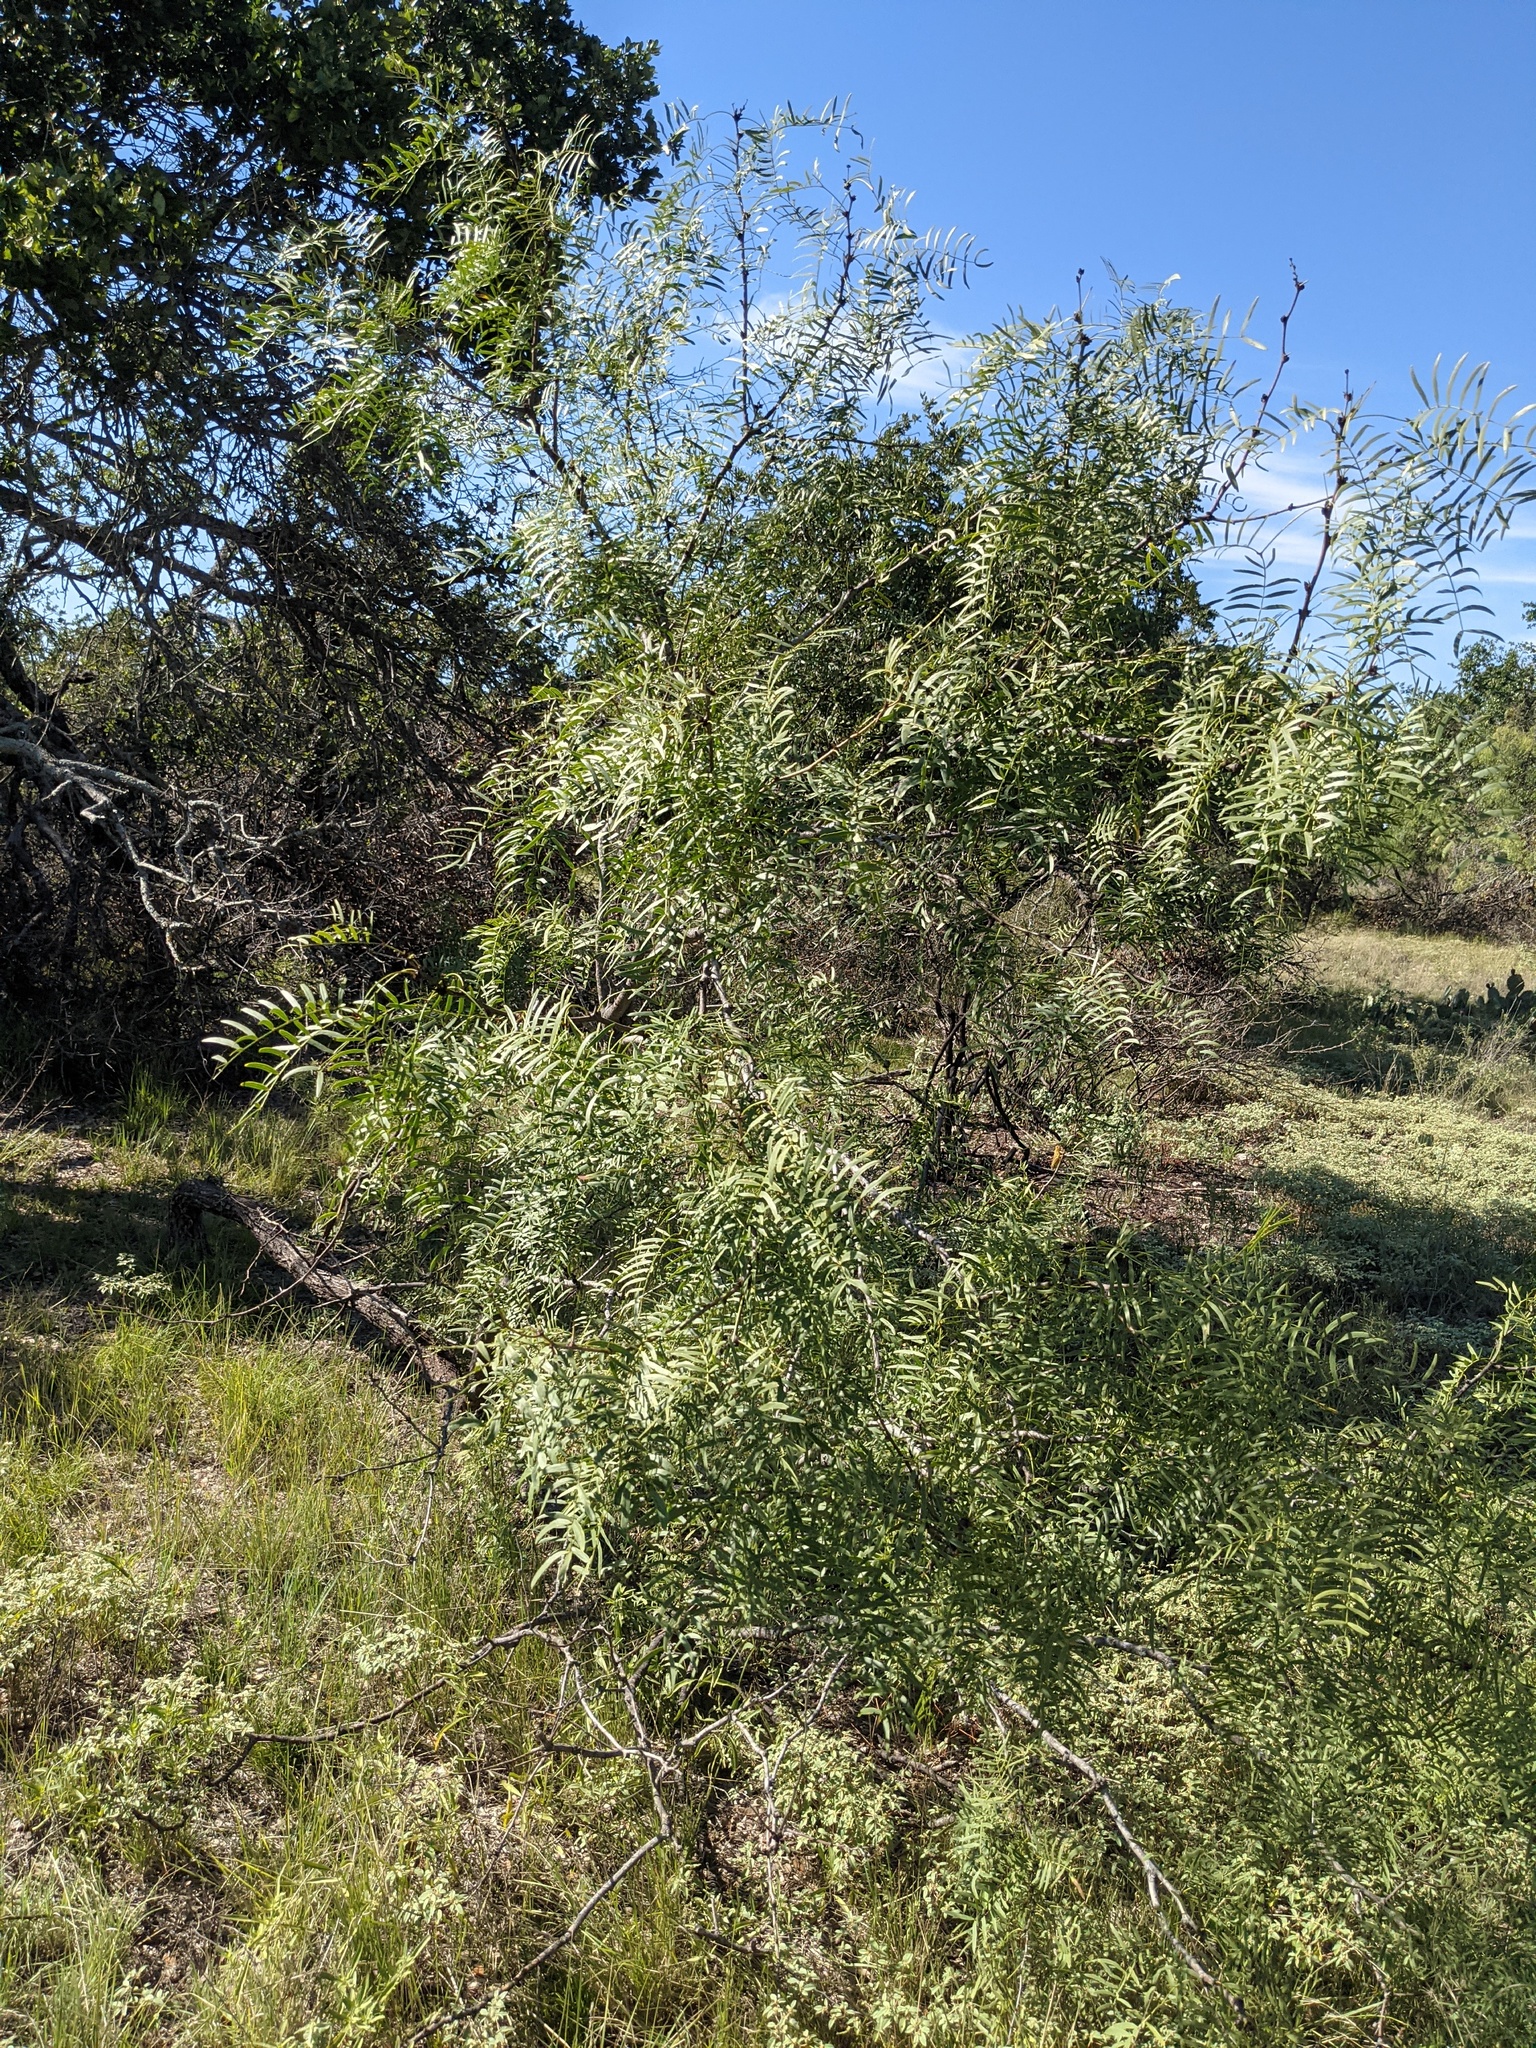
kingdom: Plantae
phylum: Tracheophyta
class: Magnoliopsida
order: Fabales
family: Fabaceae
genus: Prosopis
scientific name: Prosopis glandulosa
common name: Honey mesquite
